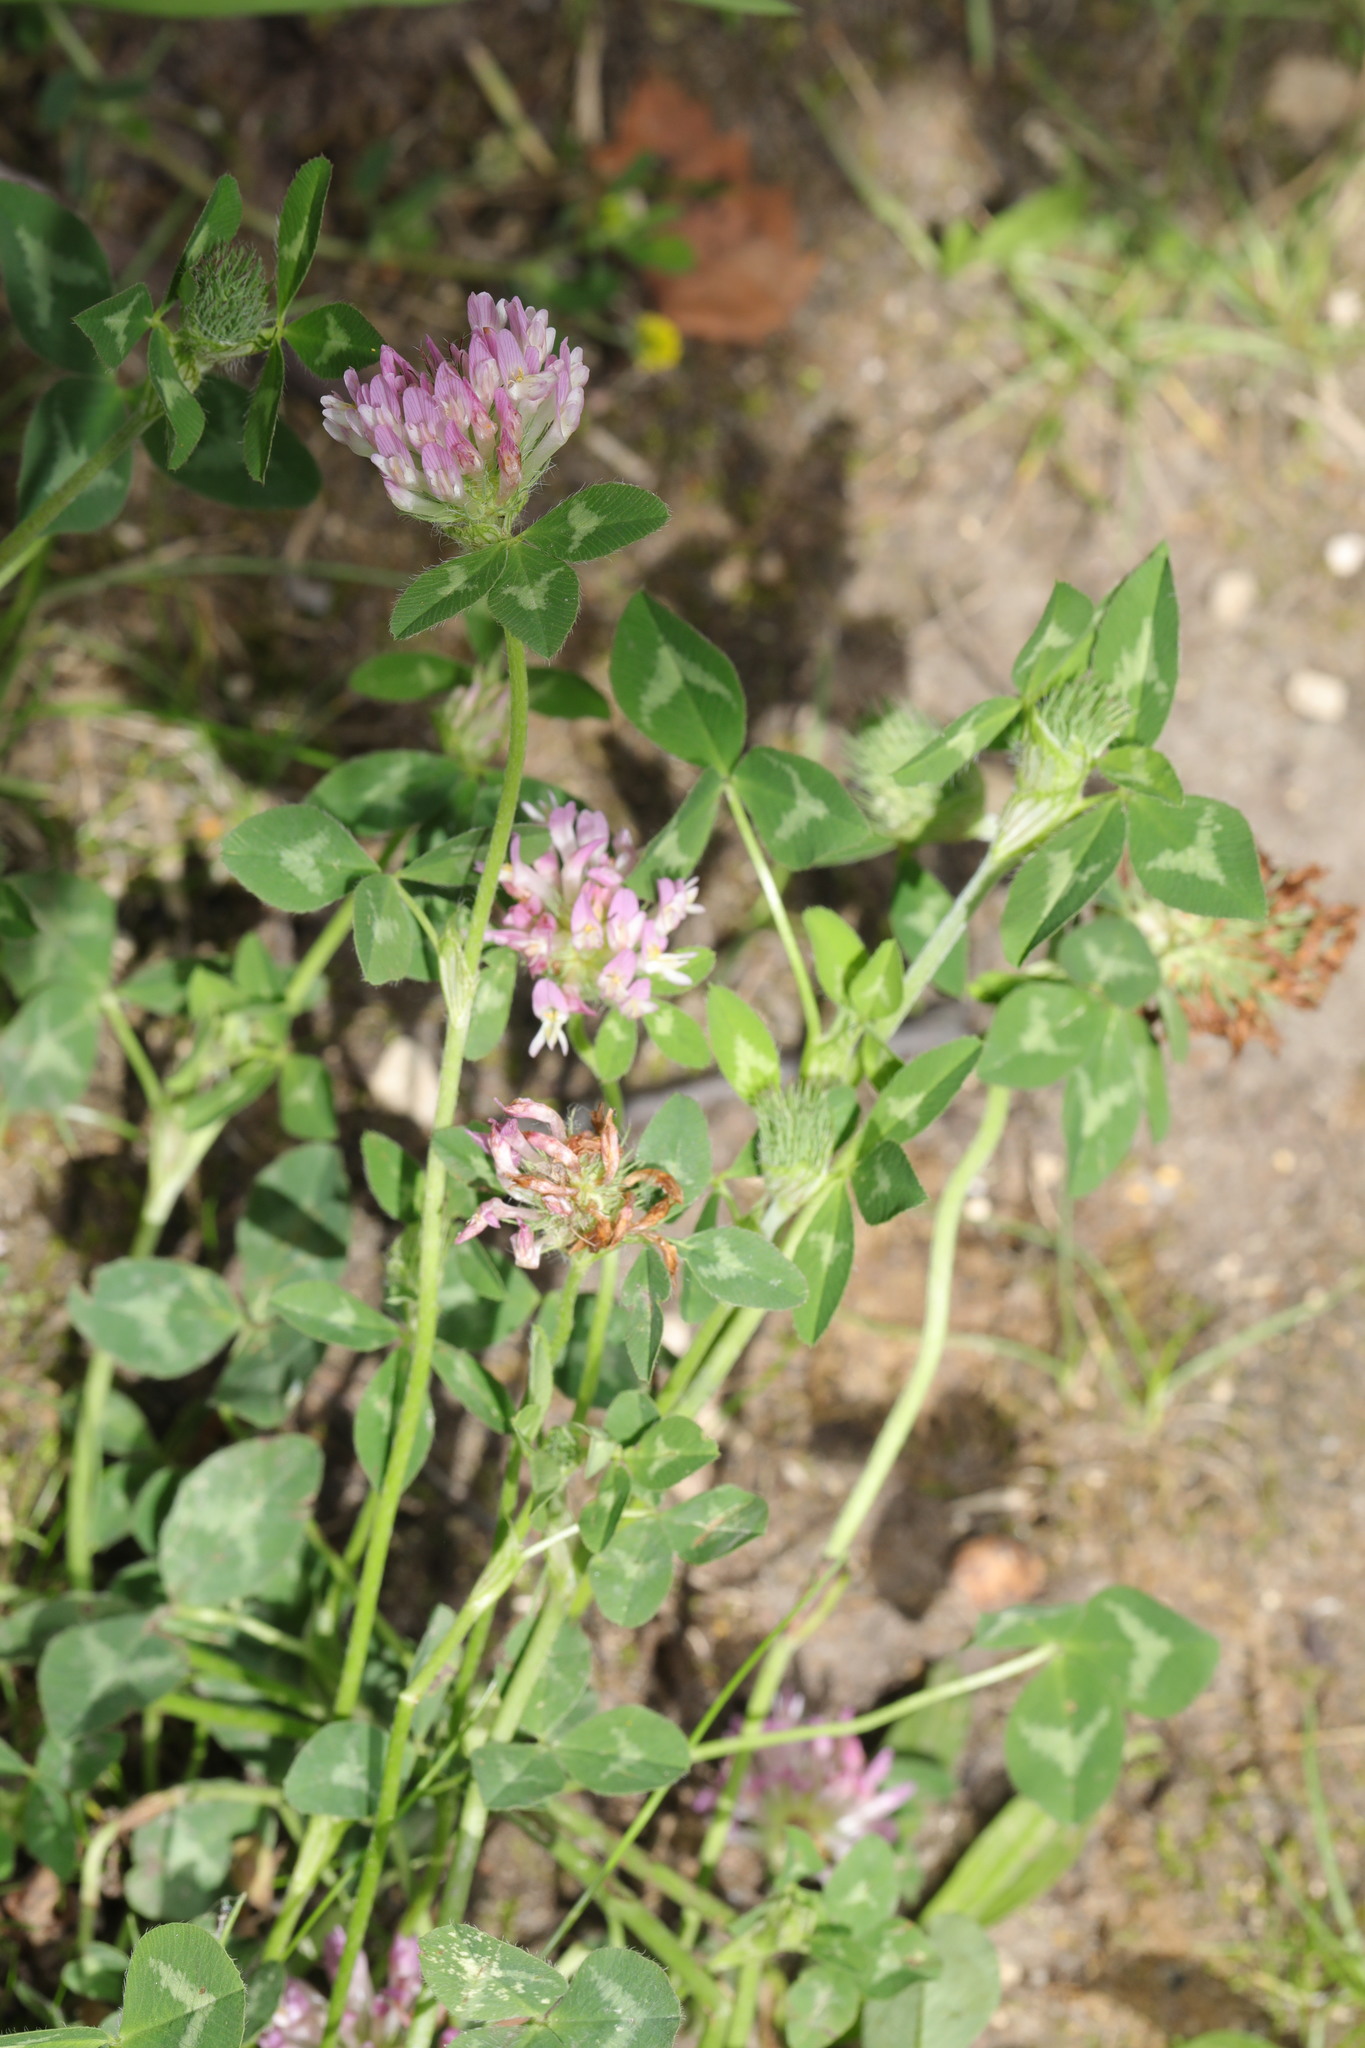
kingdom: Plantae
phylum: Tracheophyta
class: Magnoliopsida
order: Fabales
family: Fabaceae
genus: Trifolium
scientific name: Trifolium pratense
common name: Red clover
